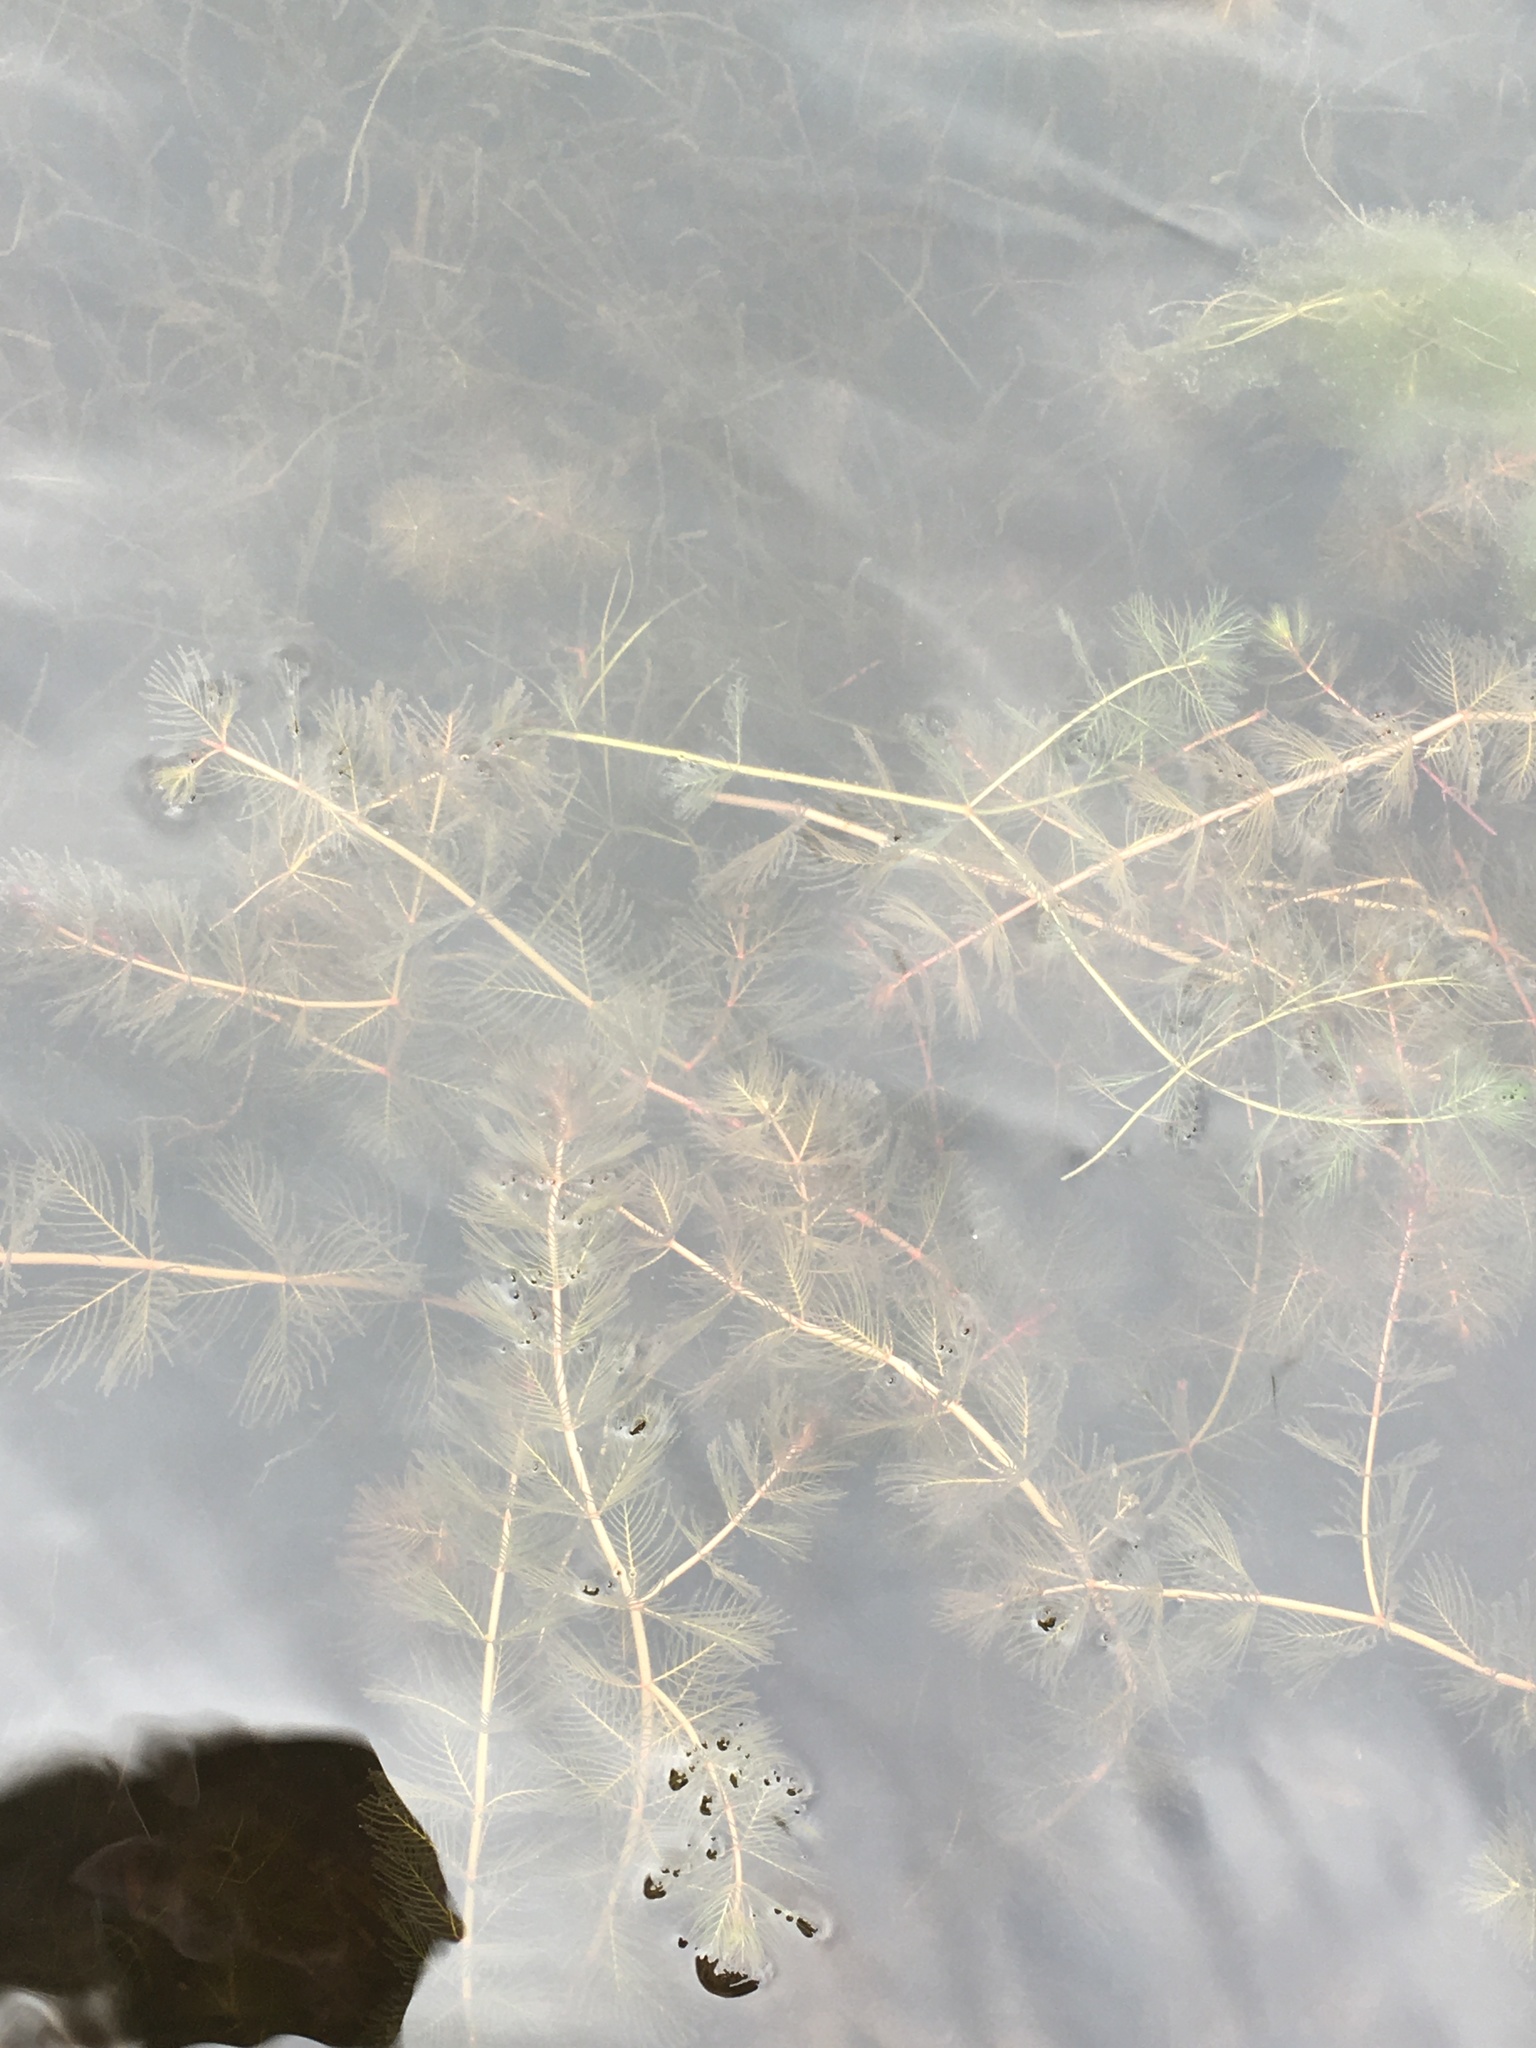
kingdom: Plantae
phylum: Tracheophyta
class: Magnoliopsida
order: Saxifragales
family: Haloragaceae
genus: Myriophyllum
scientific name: Myriophyllum spicatum
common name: Spiked water-milfoil
